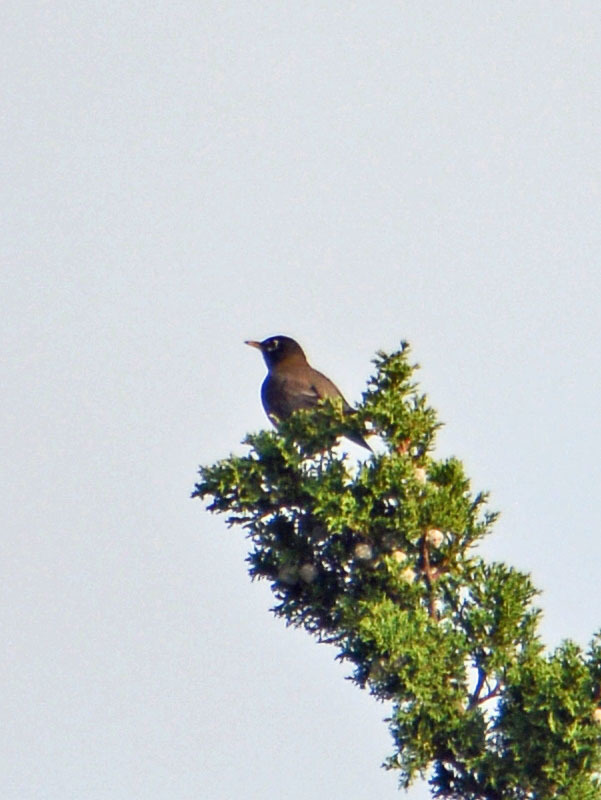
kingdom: Animalia
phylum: Chordata
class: Aves
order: Passeriformes
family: Turdidae
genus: Turdus
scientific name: Turdus migratorius
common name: American robin
